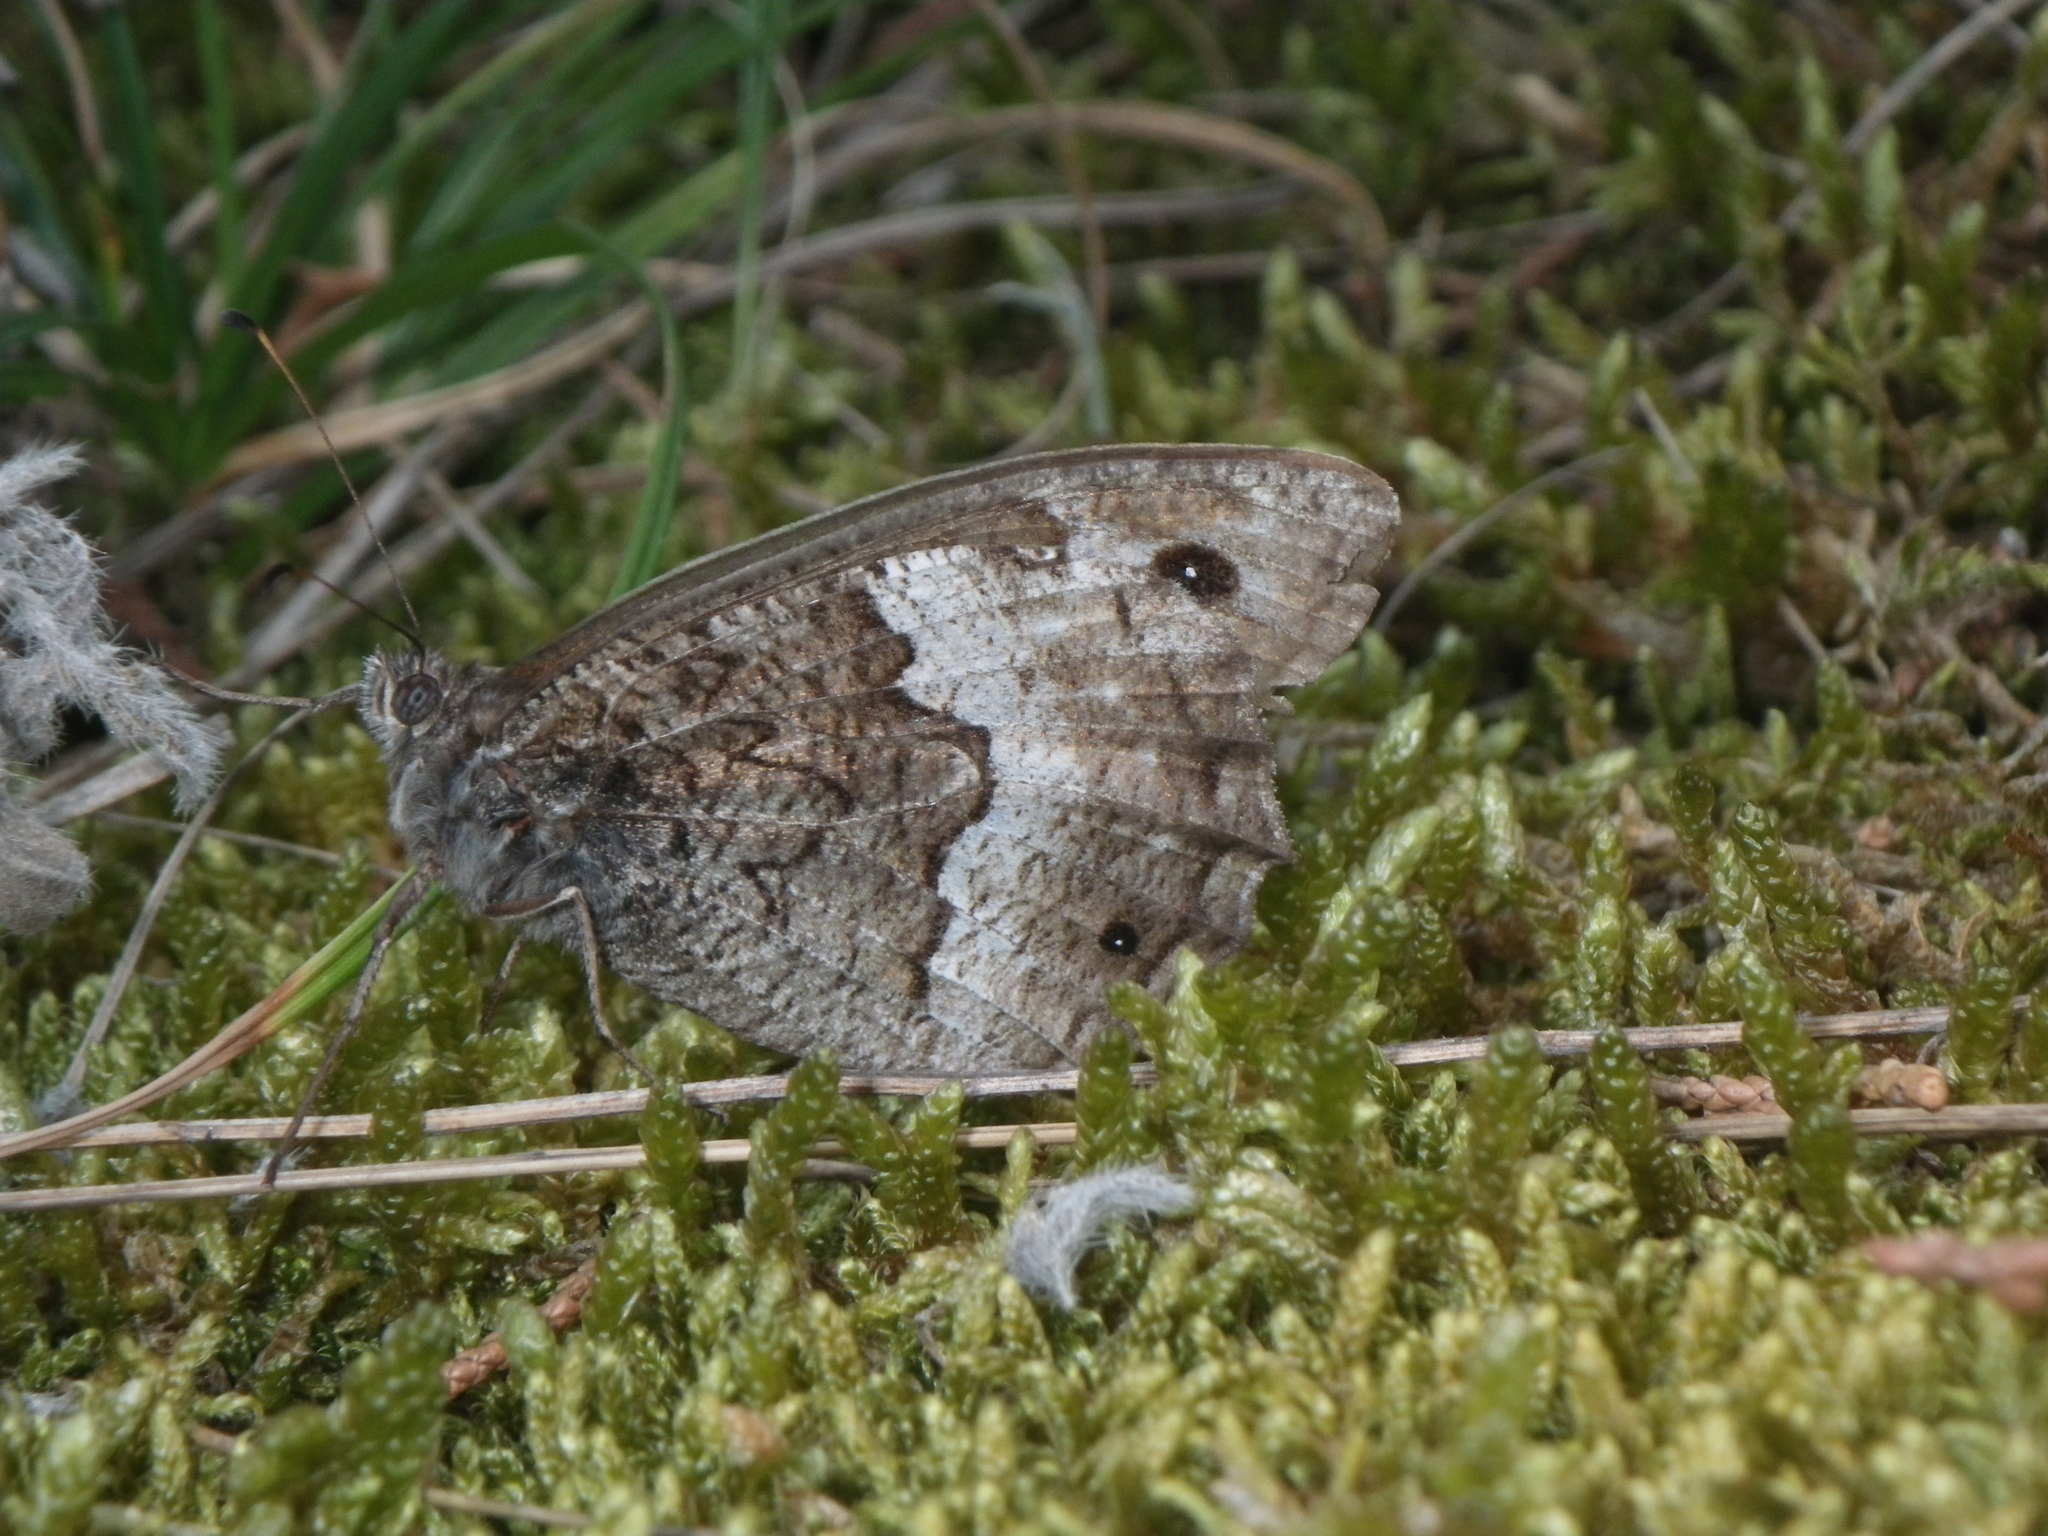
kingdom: Animalia
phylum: Arthropoda
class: Insecta
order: Lepidoptera
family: Nymphalidae
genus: Hipparchia
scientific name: Hipparchia fagi
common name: Woodland grayling
